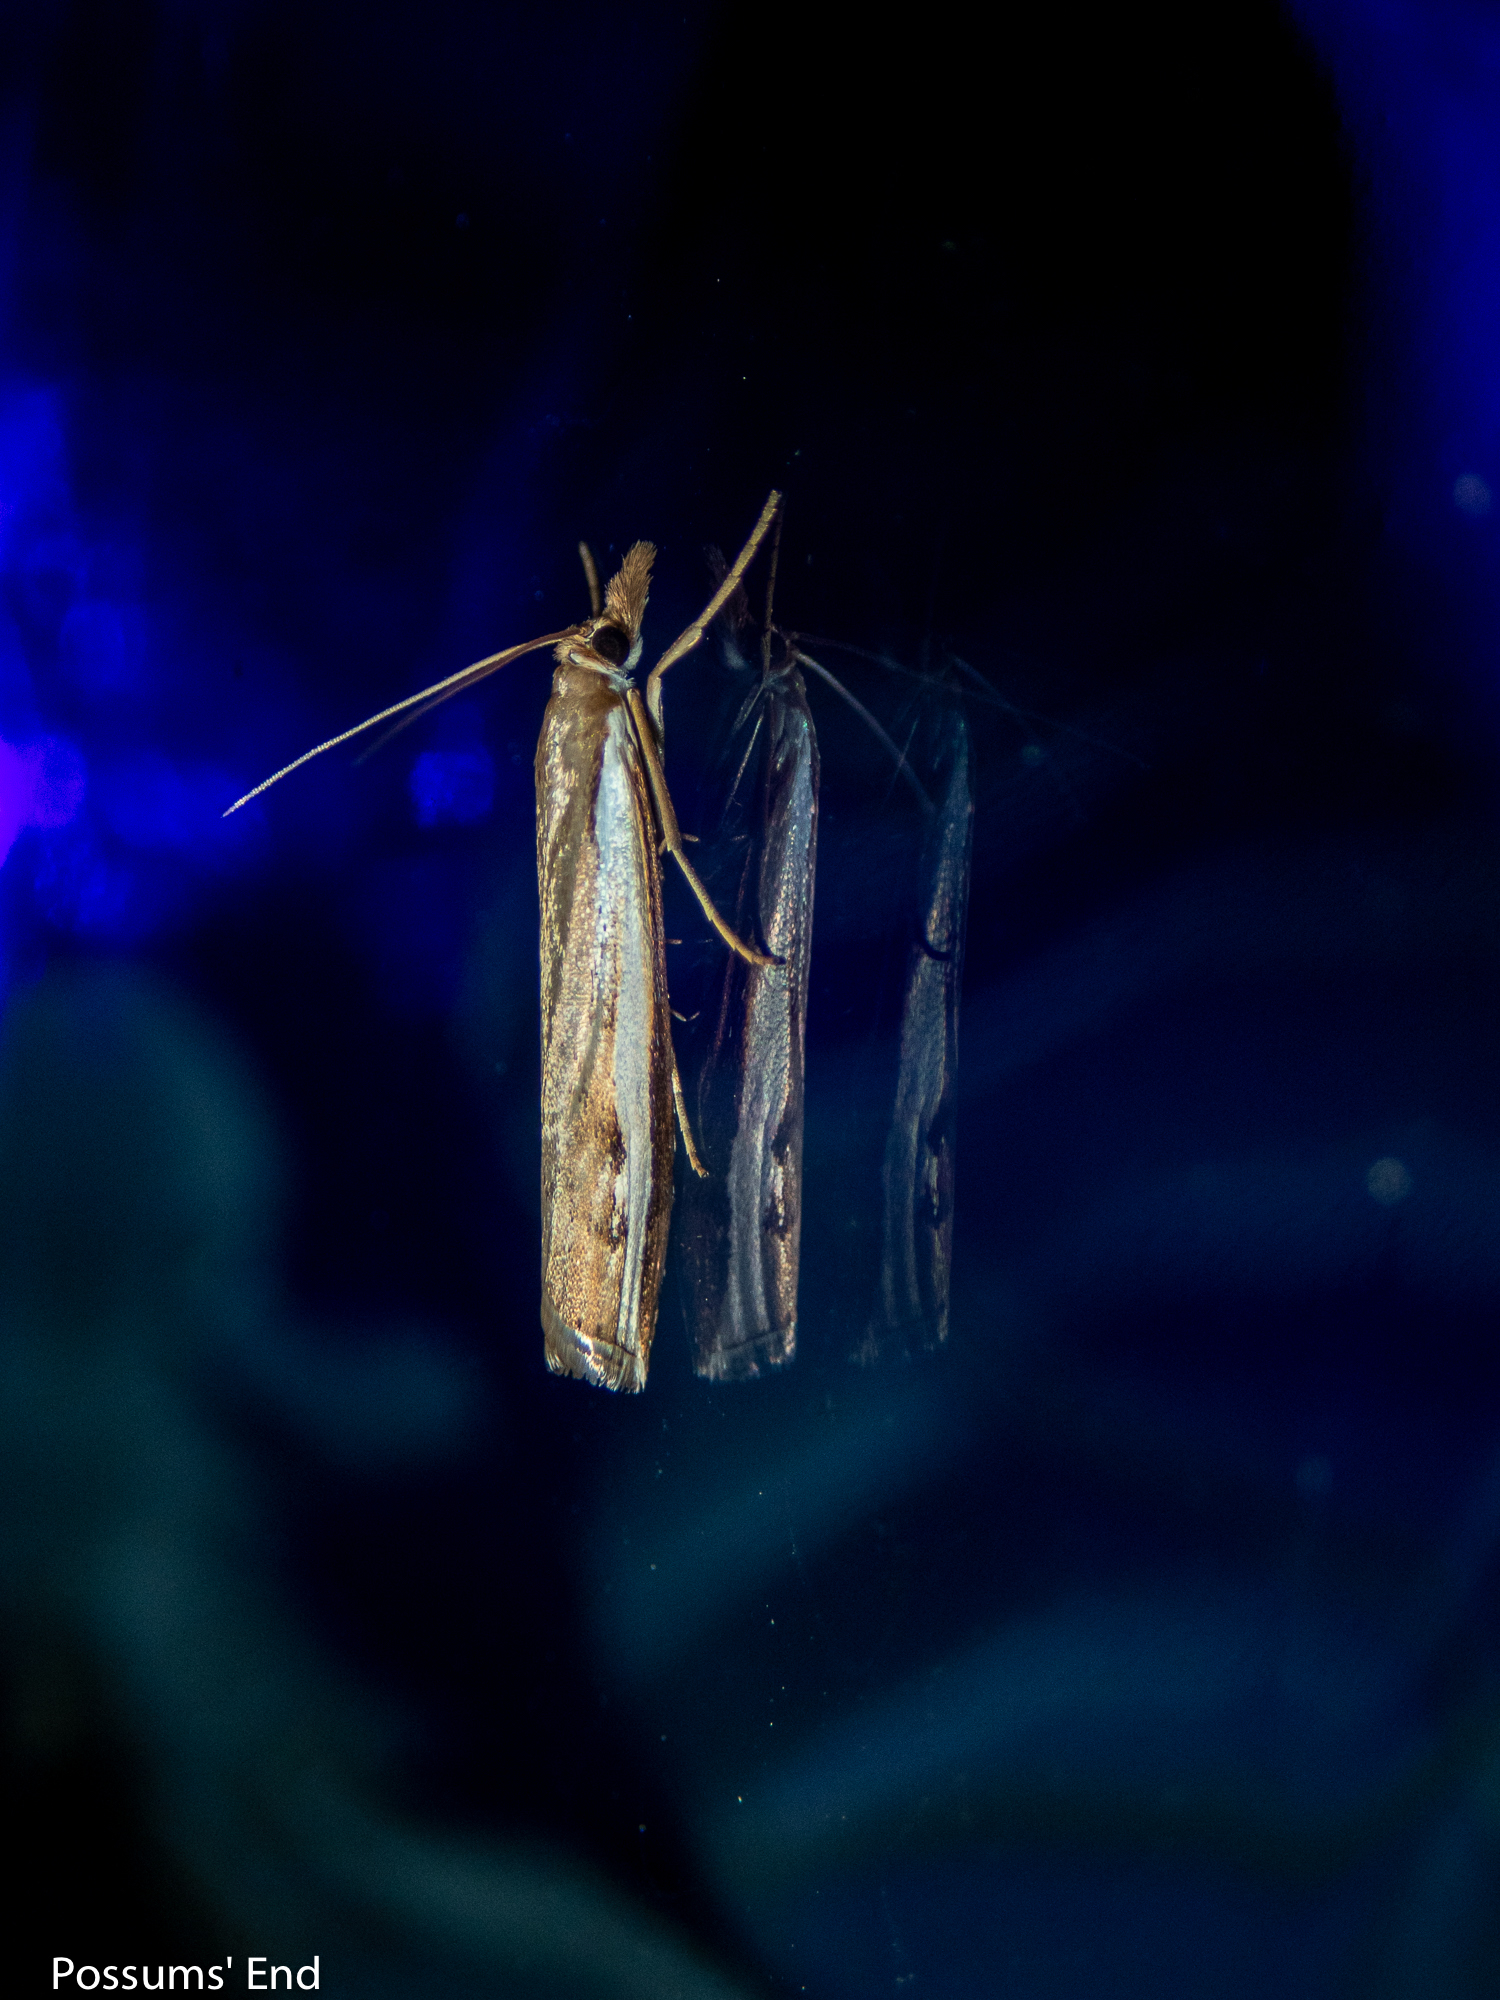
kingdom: Animalia
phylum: Arthropoda
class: Insecta
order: Lepidoptera
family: Crambidae
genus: Orocrambus
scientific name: Orocrambus flexuosellus
